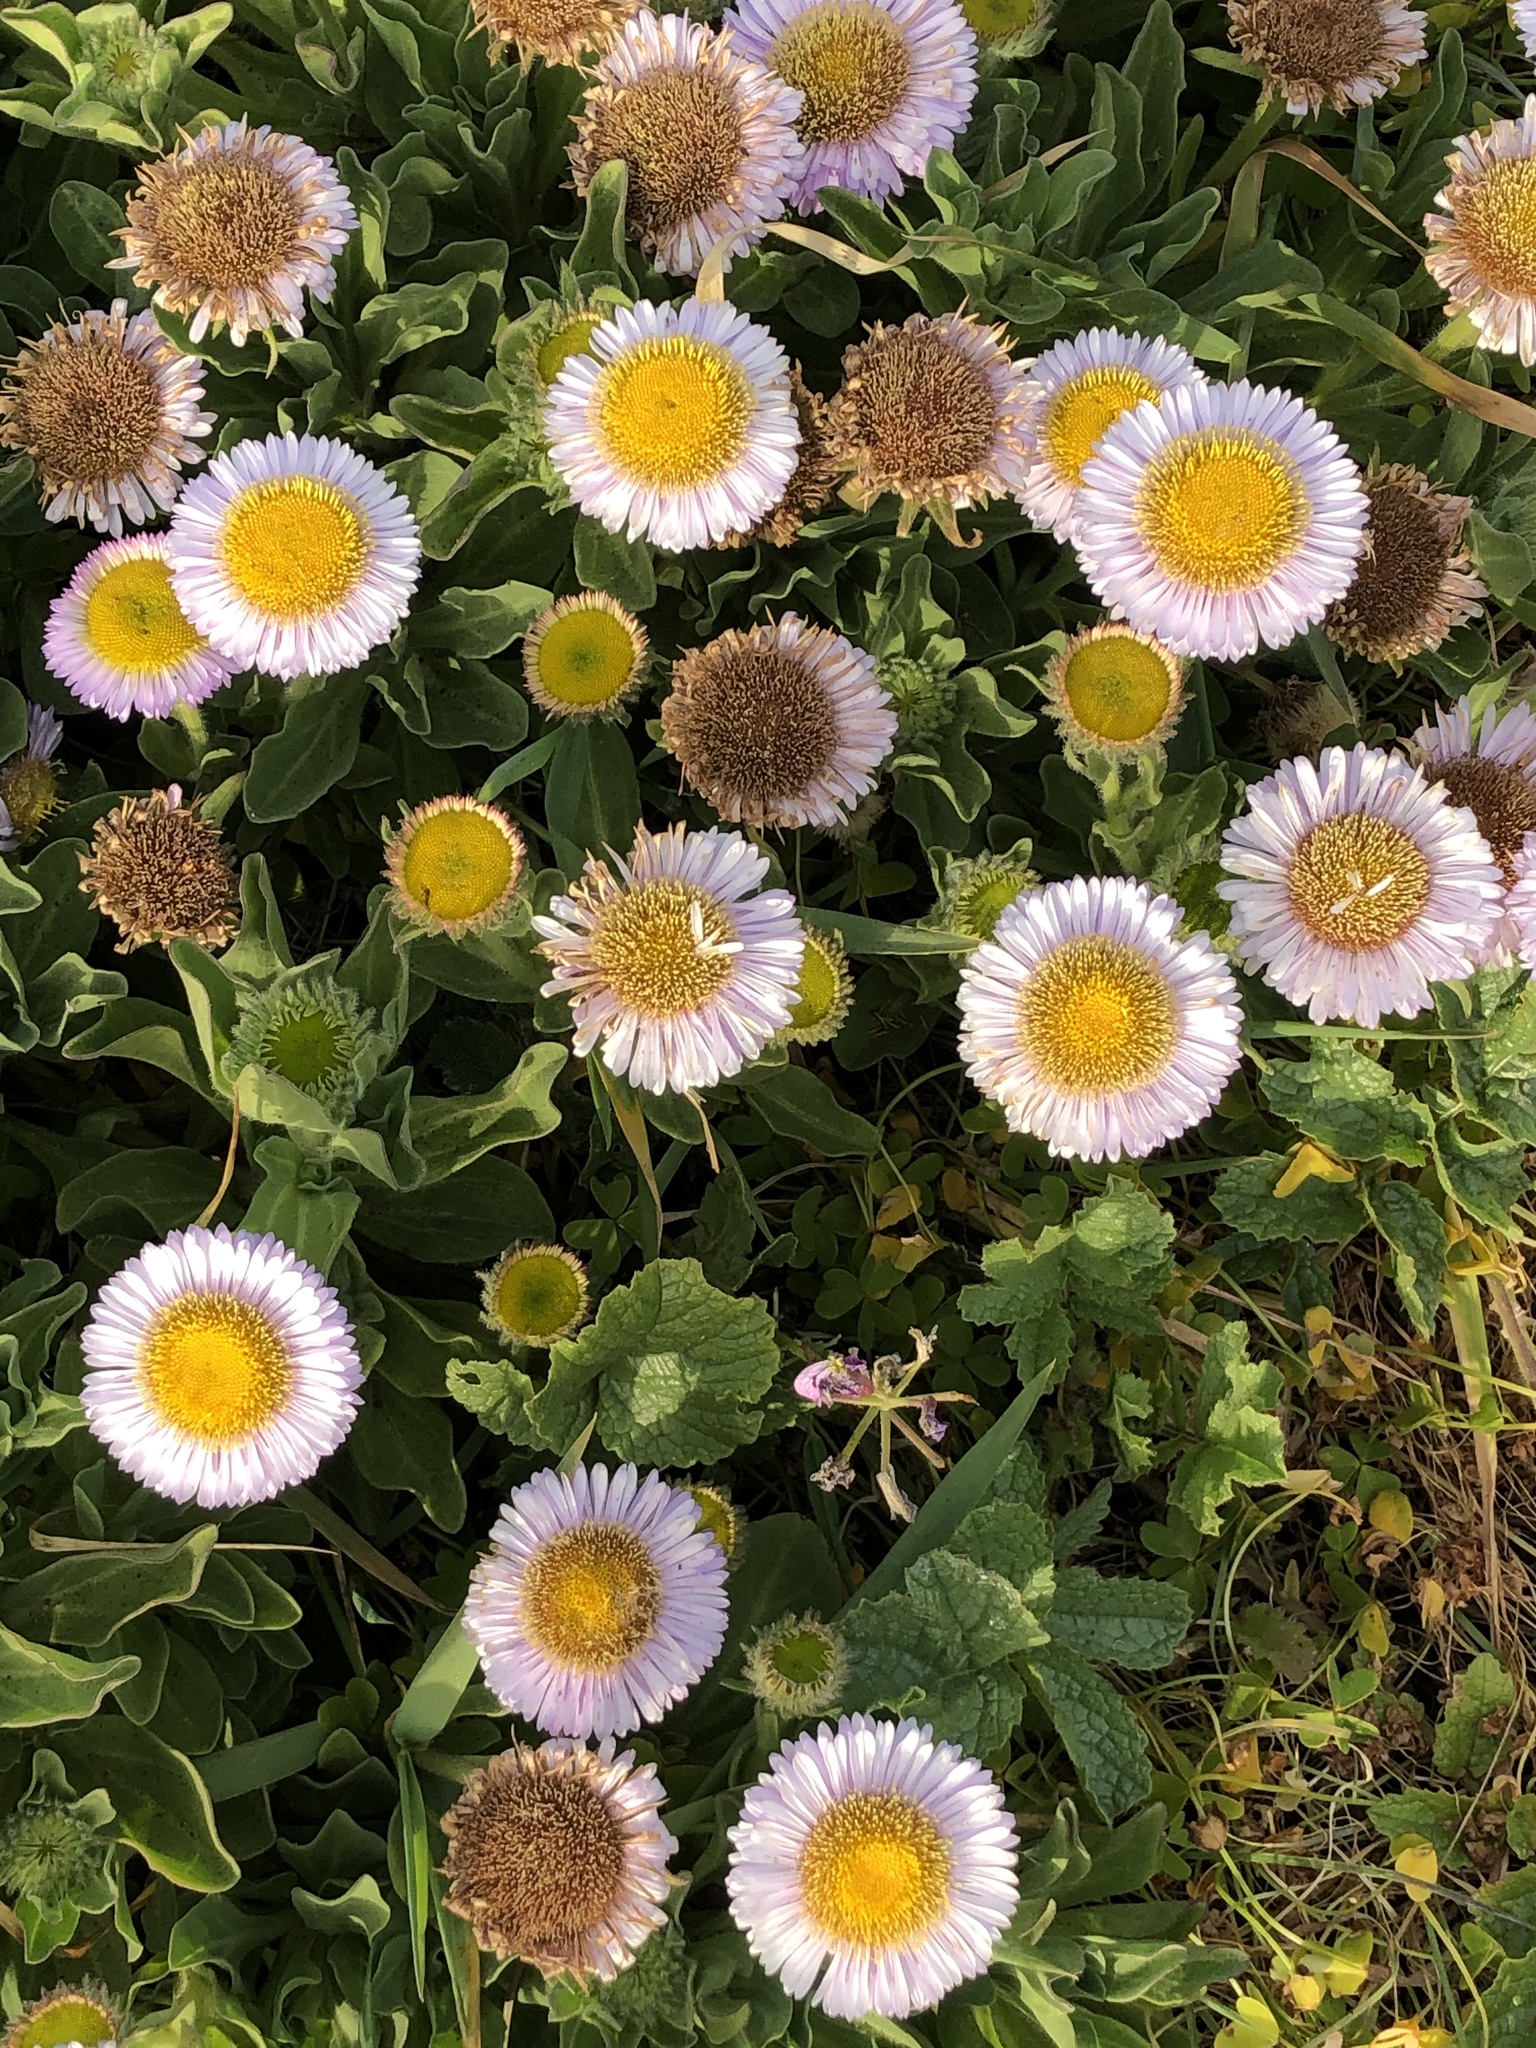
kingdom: Plantae
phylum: Tracheophyta
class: Magnoliopsida
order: Asterales
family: Asteraceae
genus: Erigeron
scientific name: Erigeron glaucus
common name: Seaside daisy
